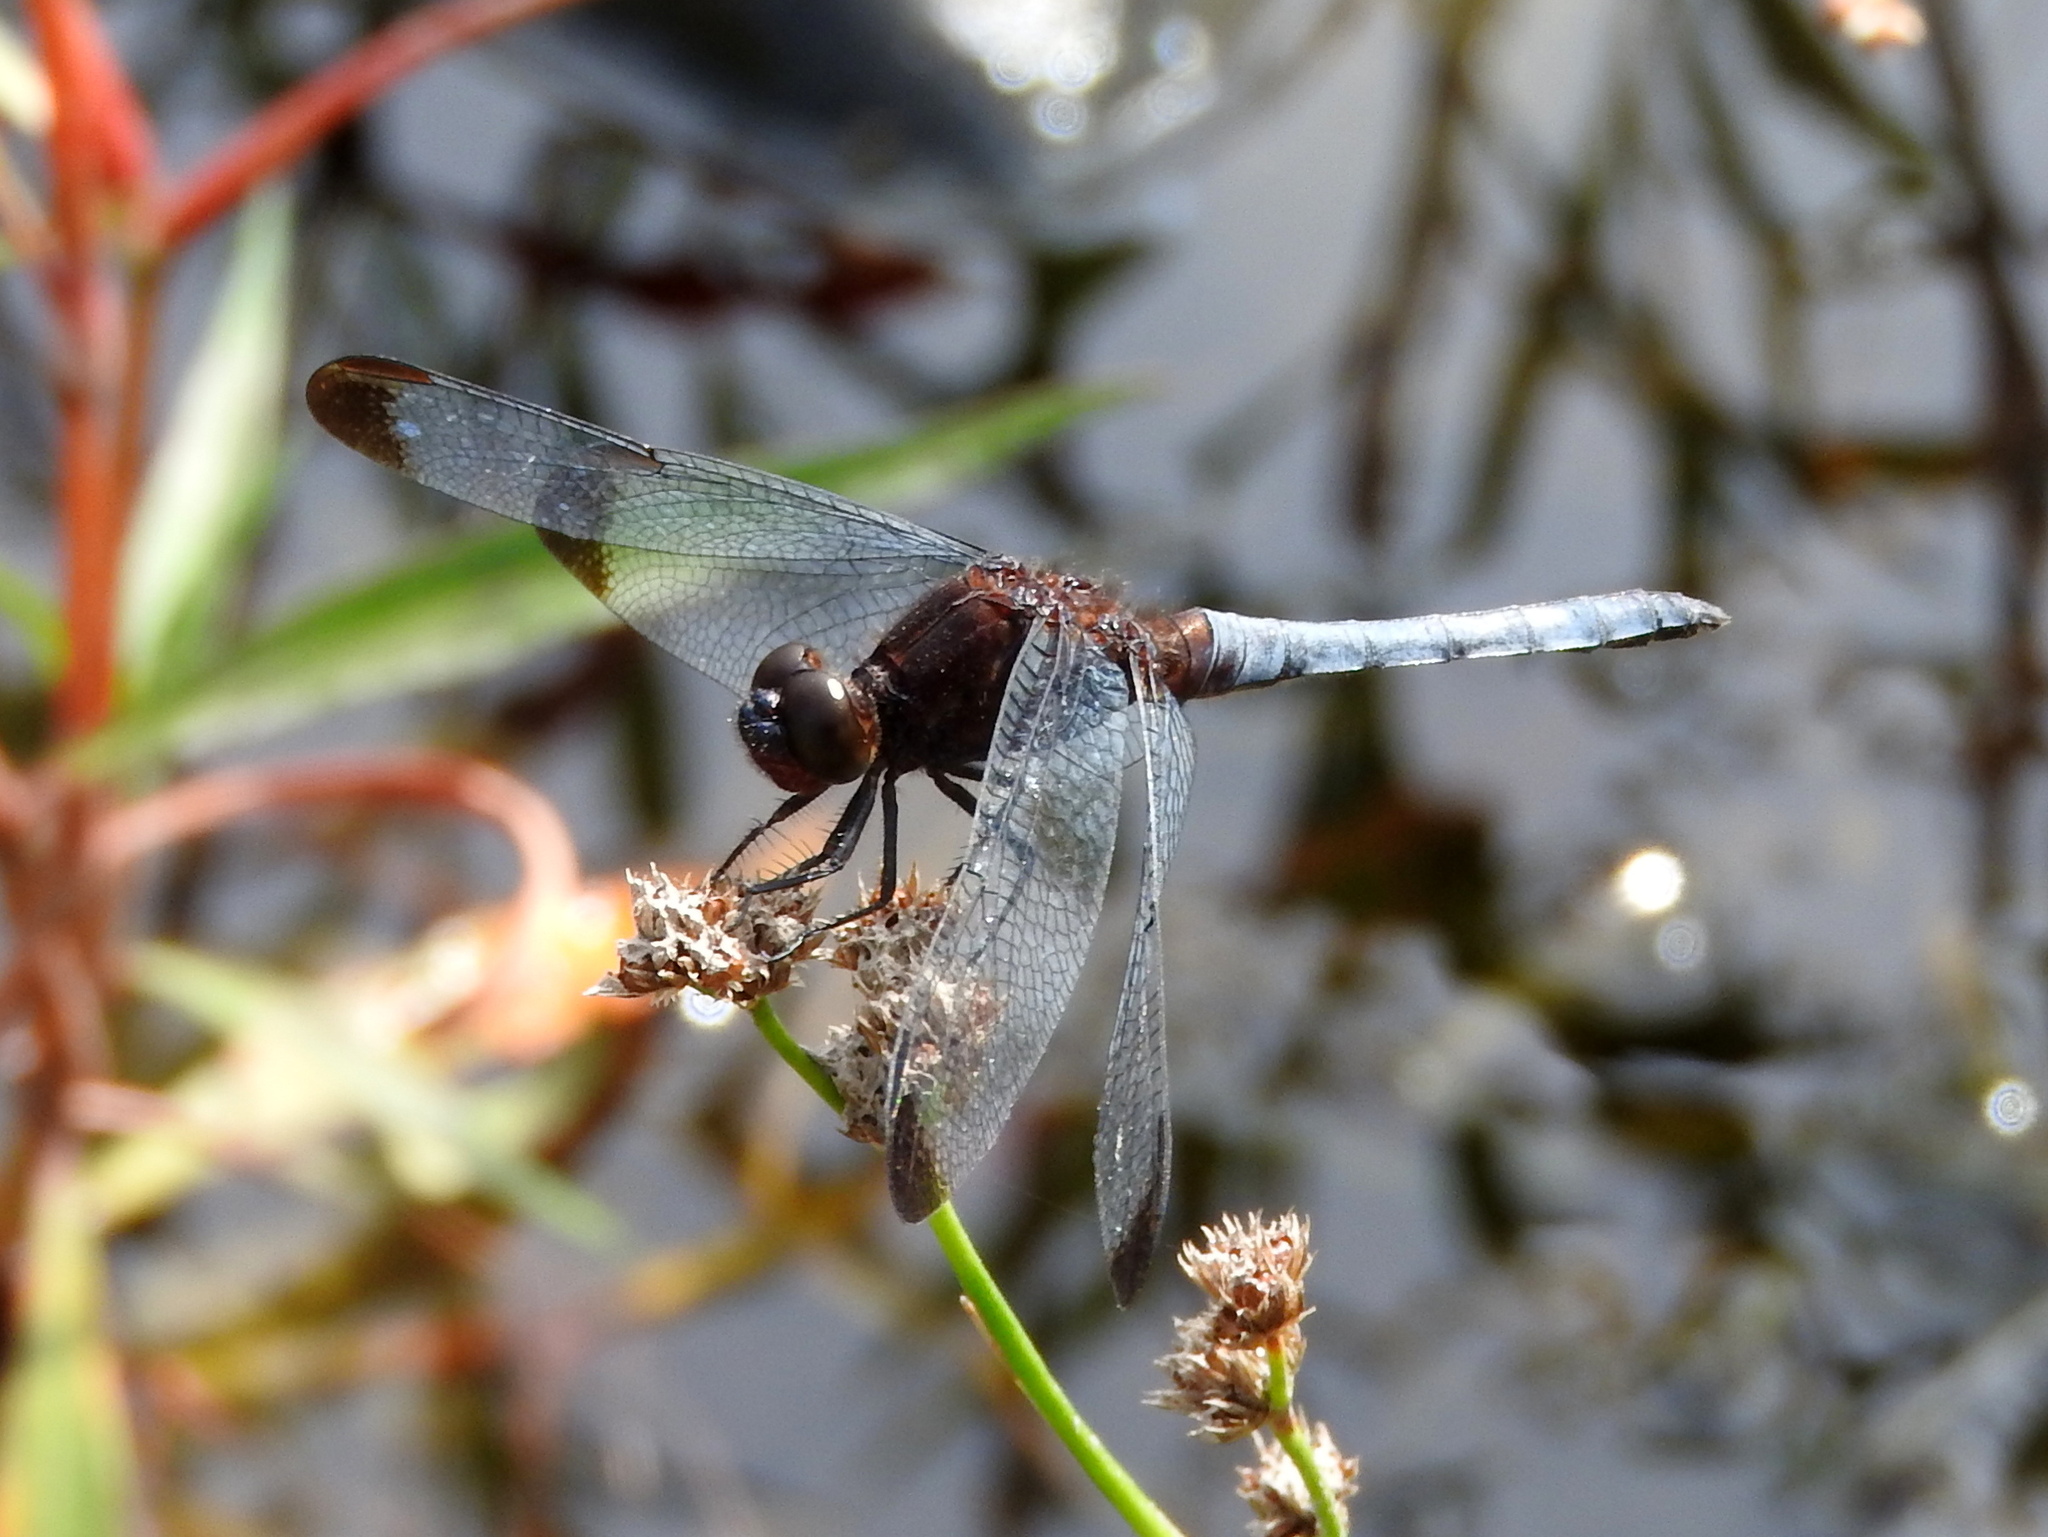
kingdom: Animalia
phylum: Arthropoda
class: Insecta
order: Odonata
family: Libellulidae
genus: Erythrodiplax
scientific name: Erythrodiplax atroterminata
